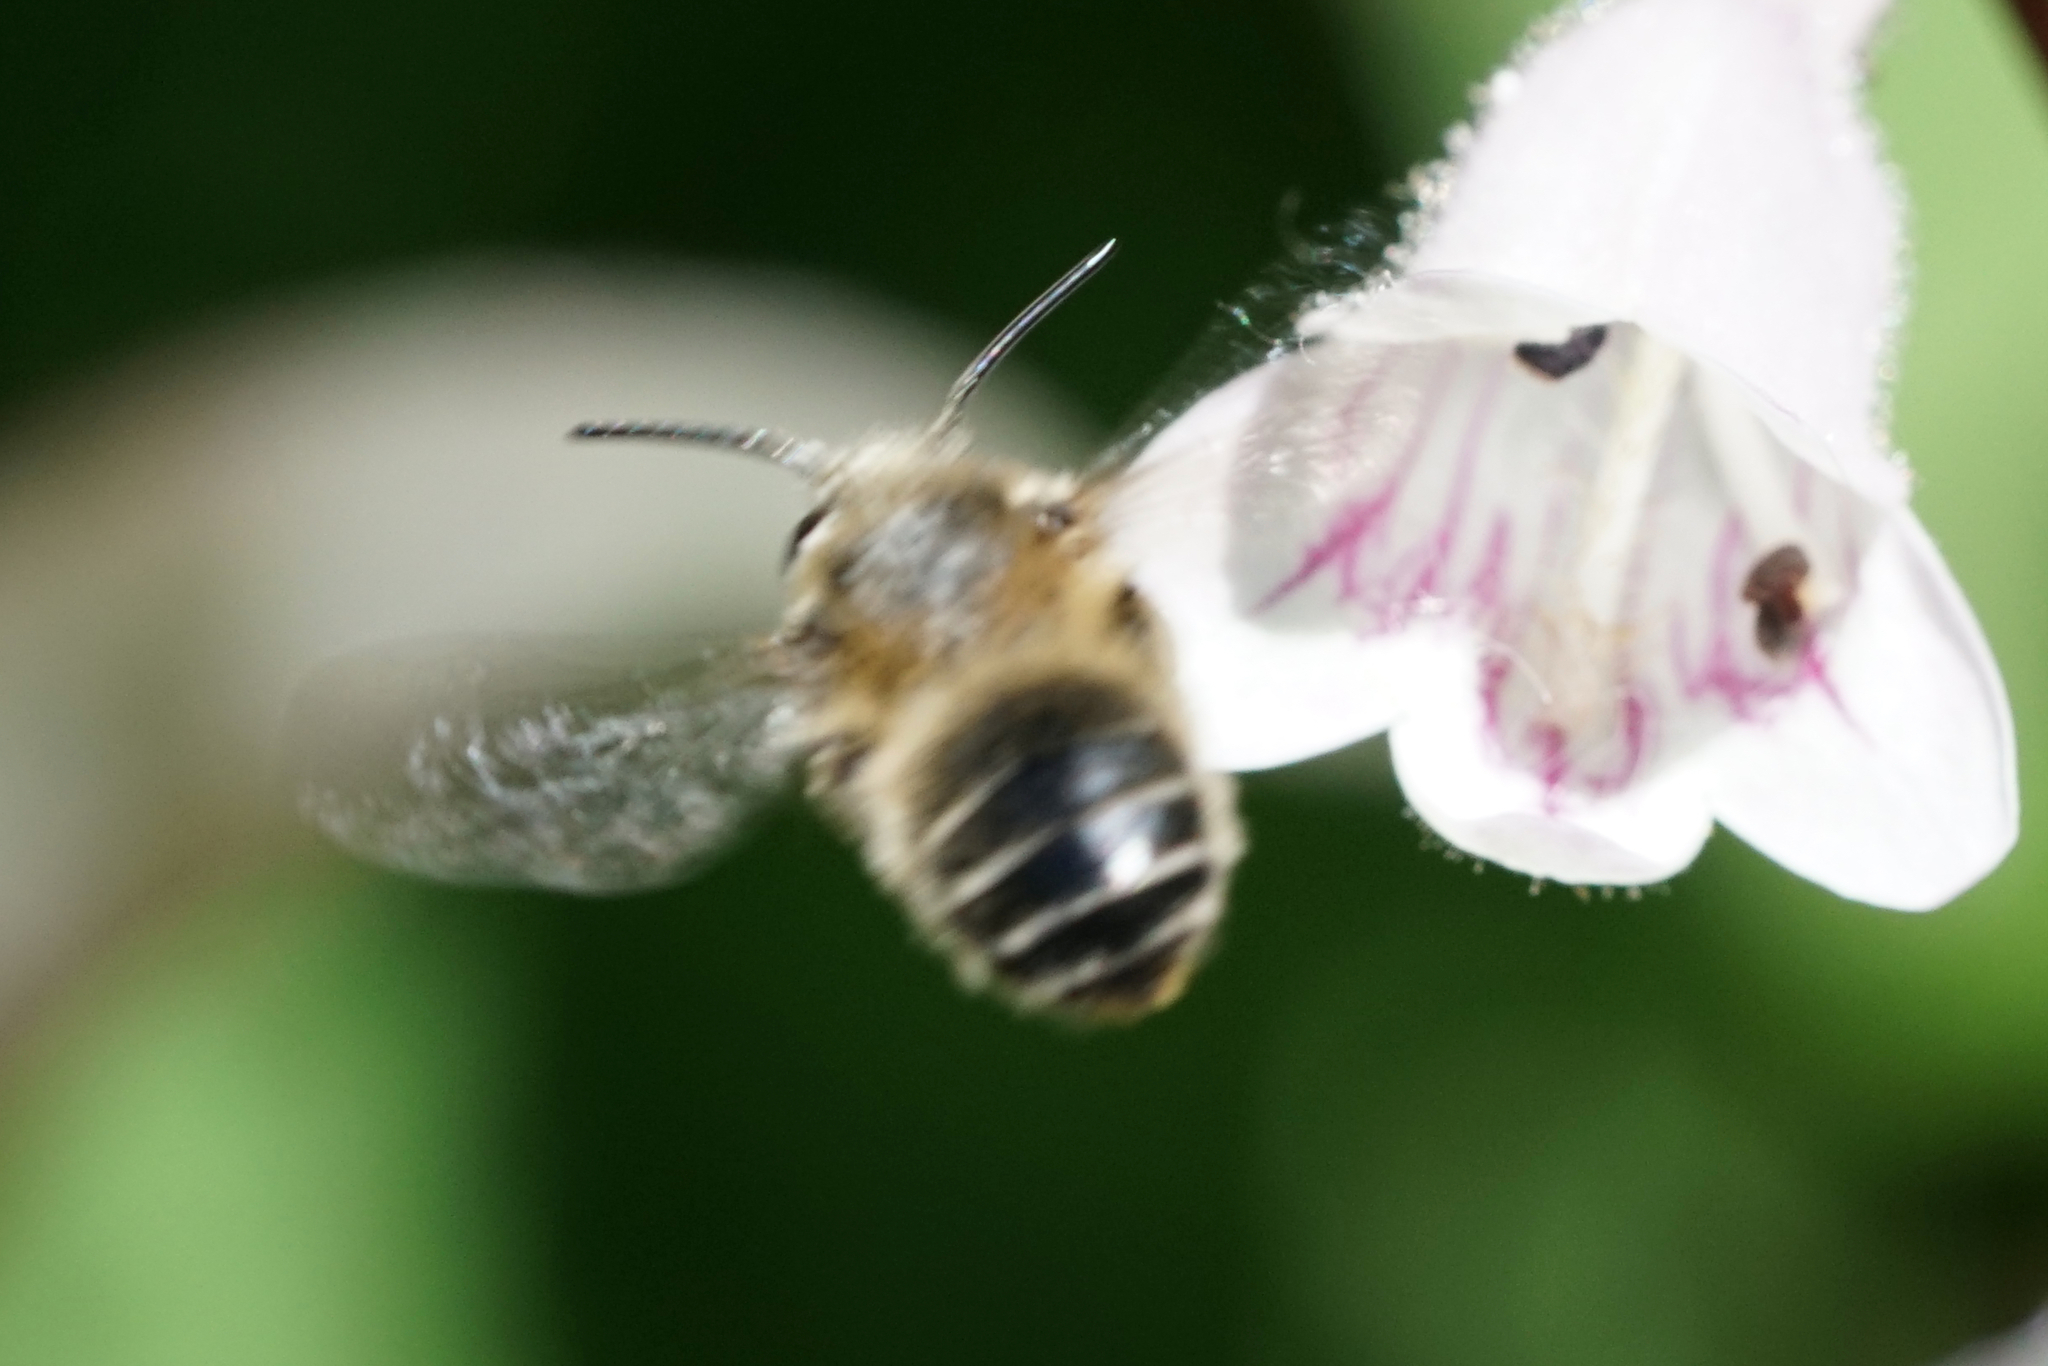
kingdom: Animalia
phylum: Arthropoda
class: Insecta
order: Hymenoptera
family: Apidae
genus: Anthophora
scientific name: Anthophora terminalis
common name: Orange-tipped wood-digger bee
